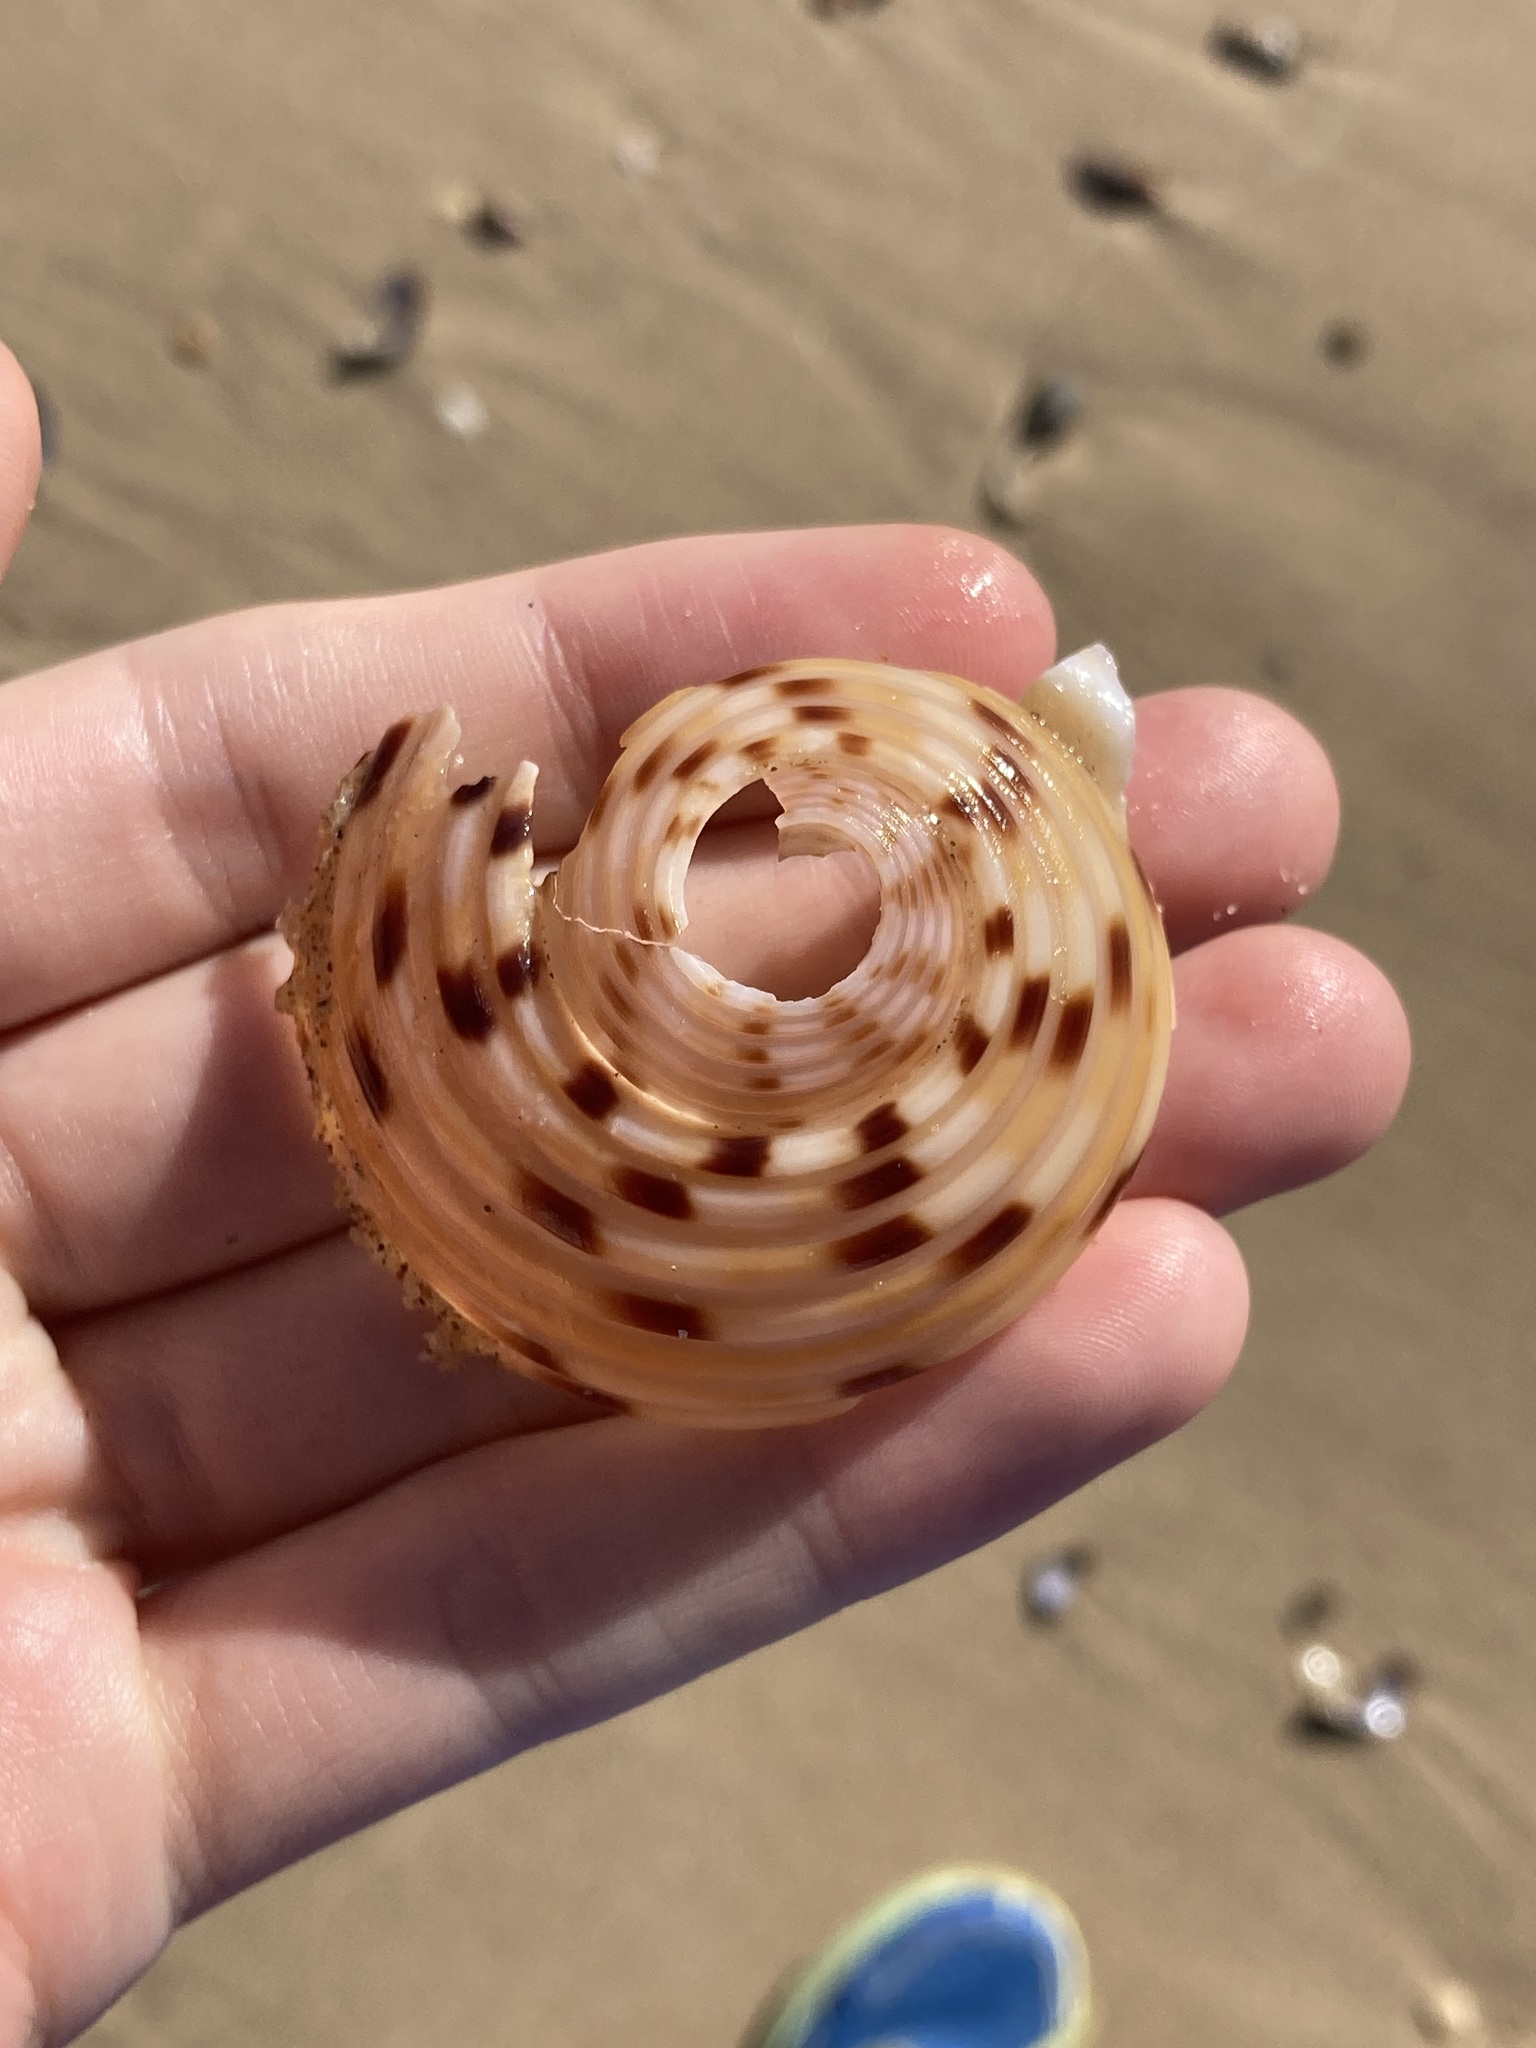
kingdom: Animalia
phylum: Mollusca
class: Gastropoda
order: Littorinimorpha
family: Tonnidae
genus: Tonna
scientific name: Tonna tankervillii
